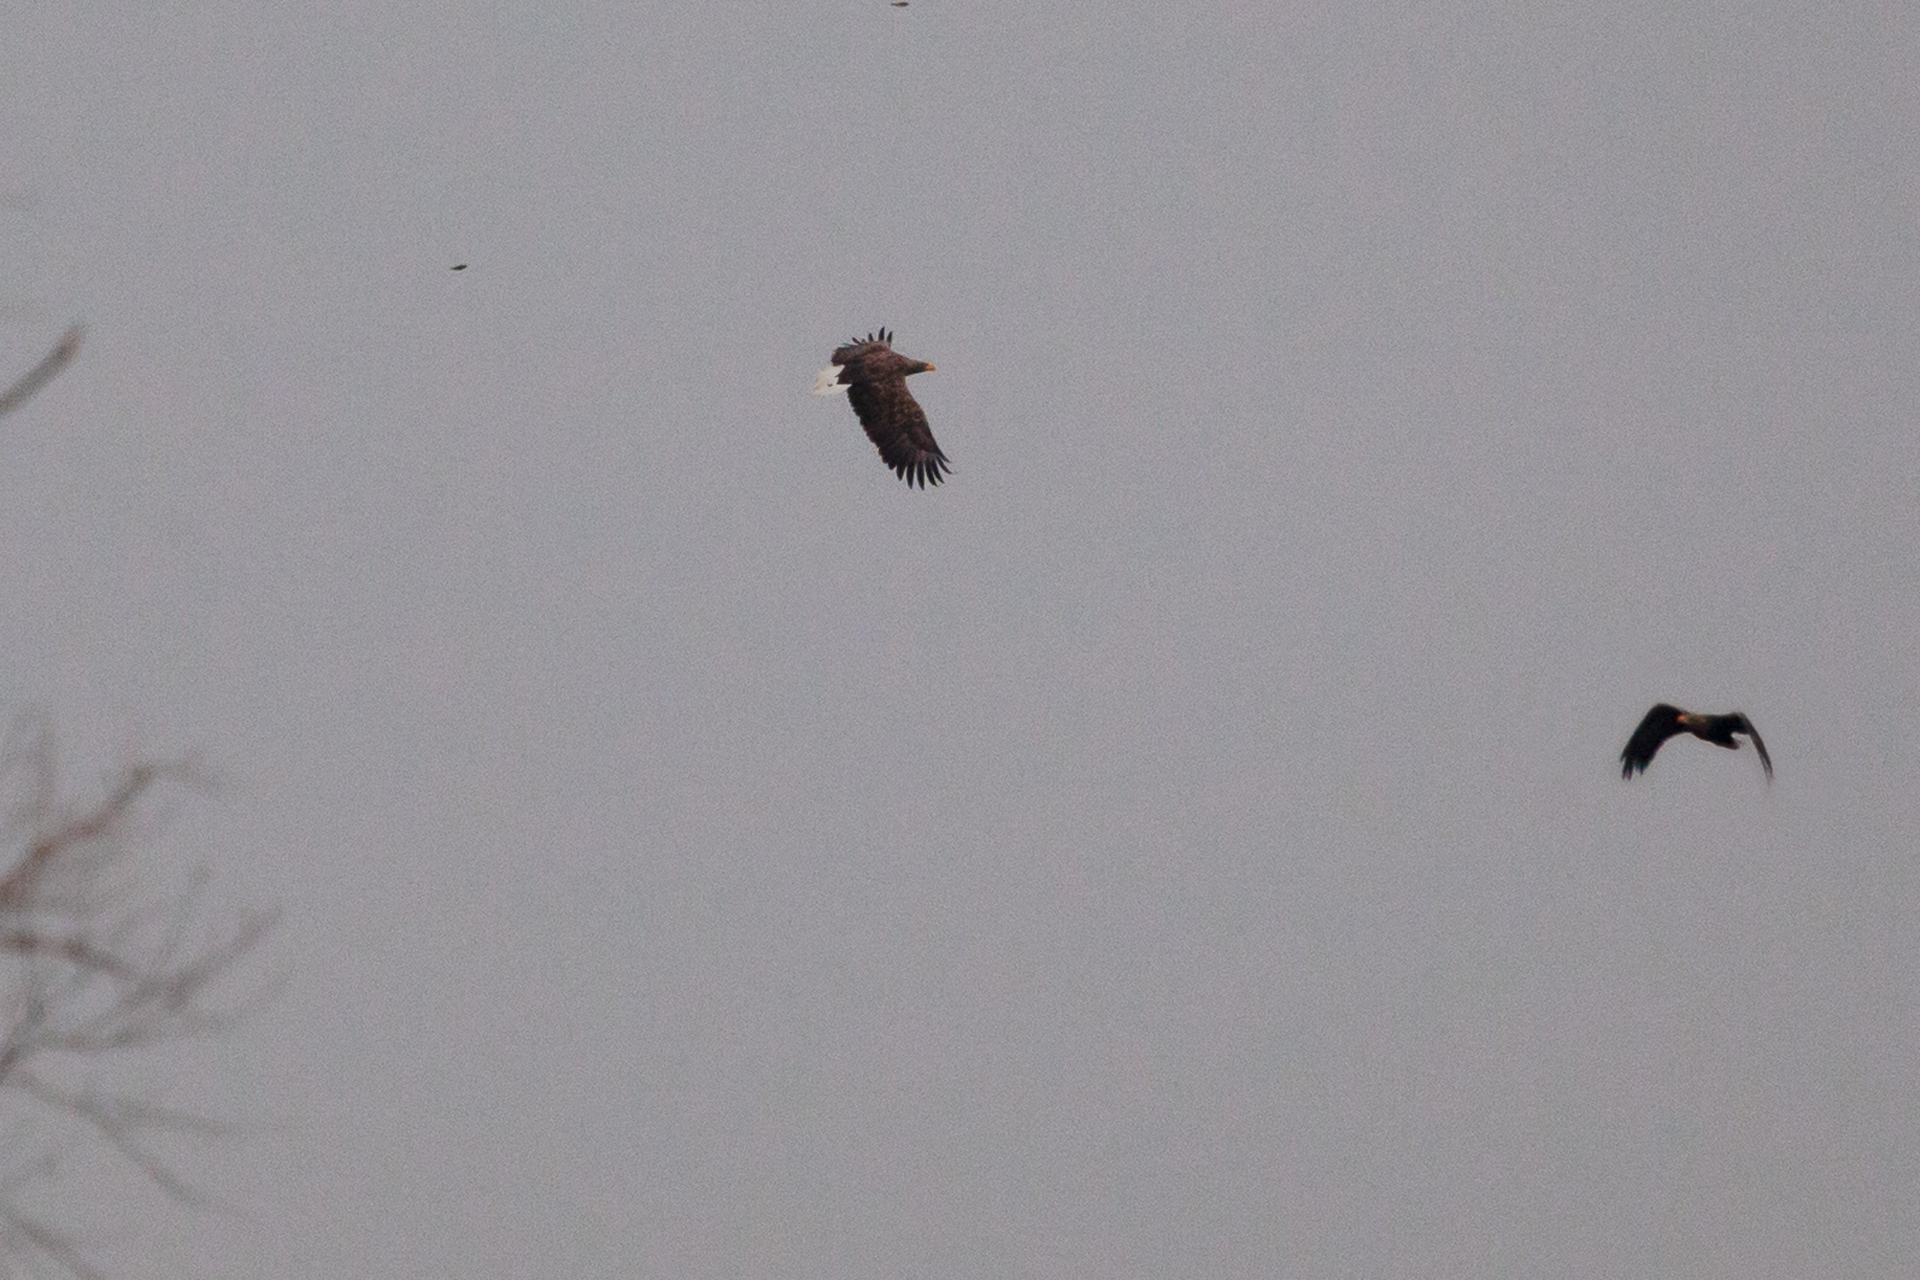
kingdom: Animalia
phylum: Chordata
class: Aves
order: Accipitriformes
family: Accipitridae
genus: Haliaeetus
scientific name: Haliaeetus albicilla
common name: White-tailed eagle
